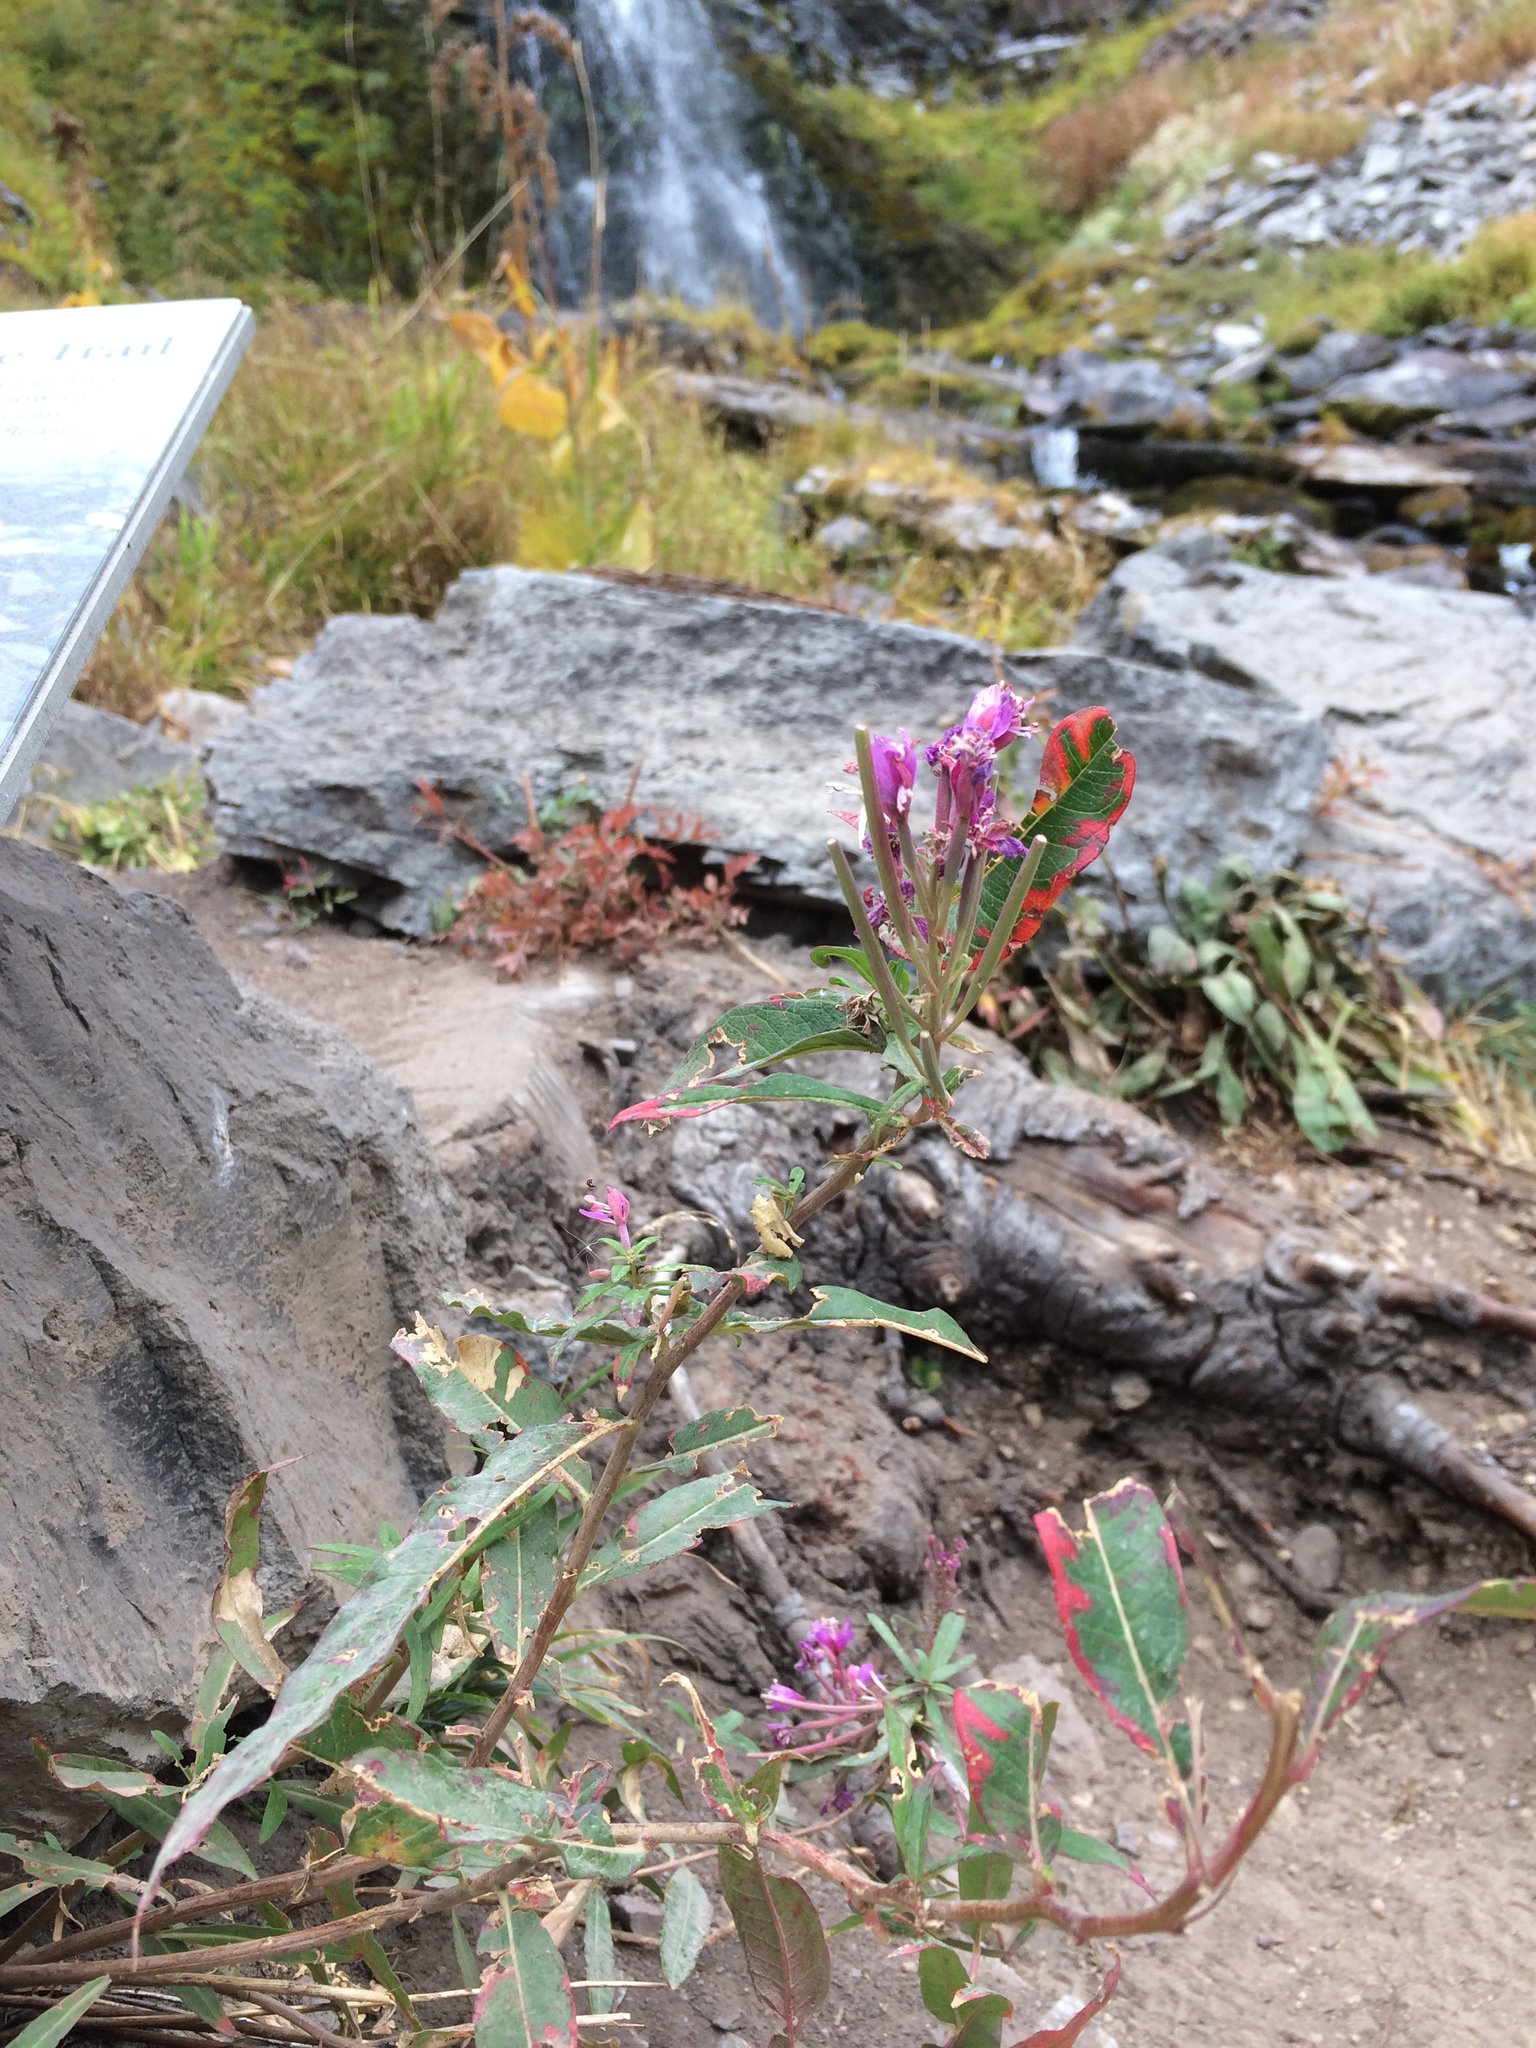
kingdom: Plantae
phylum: Tracheophyta
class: Magnoliopsida
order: Myrtales
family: Onagraceae
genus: Chamaenerion
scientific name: Chamaenerion angustifolium
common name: Fireweed
